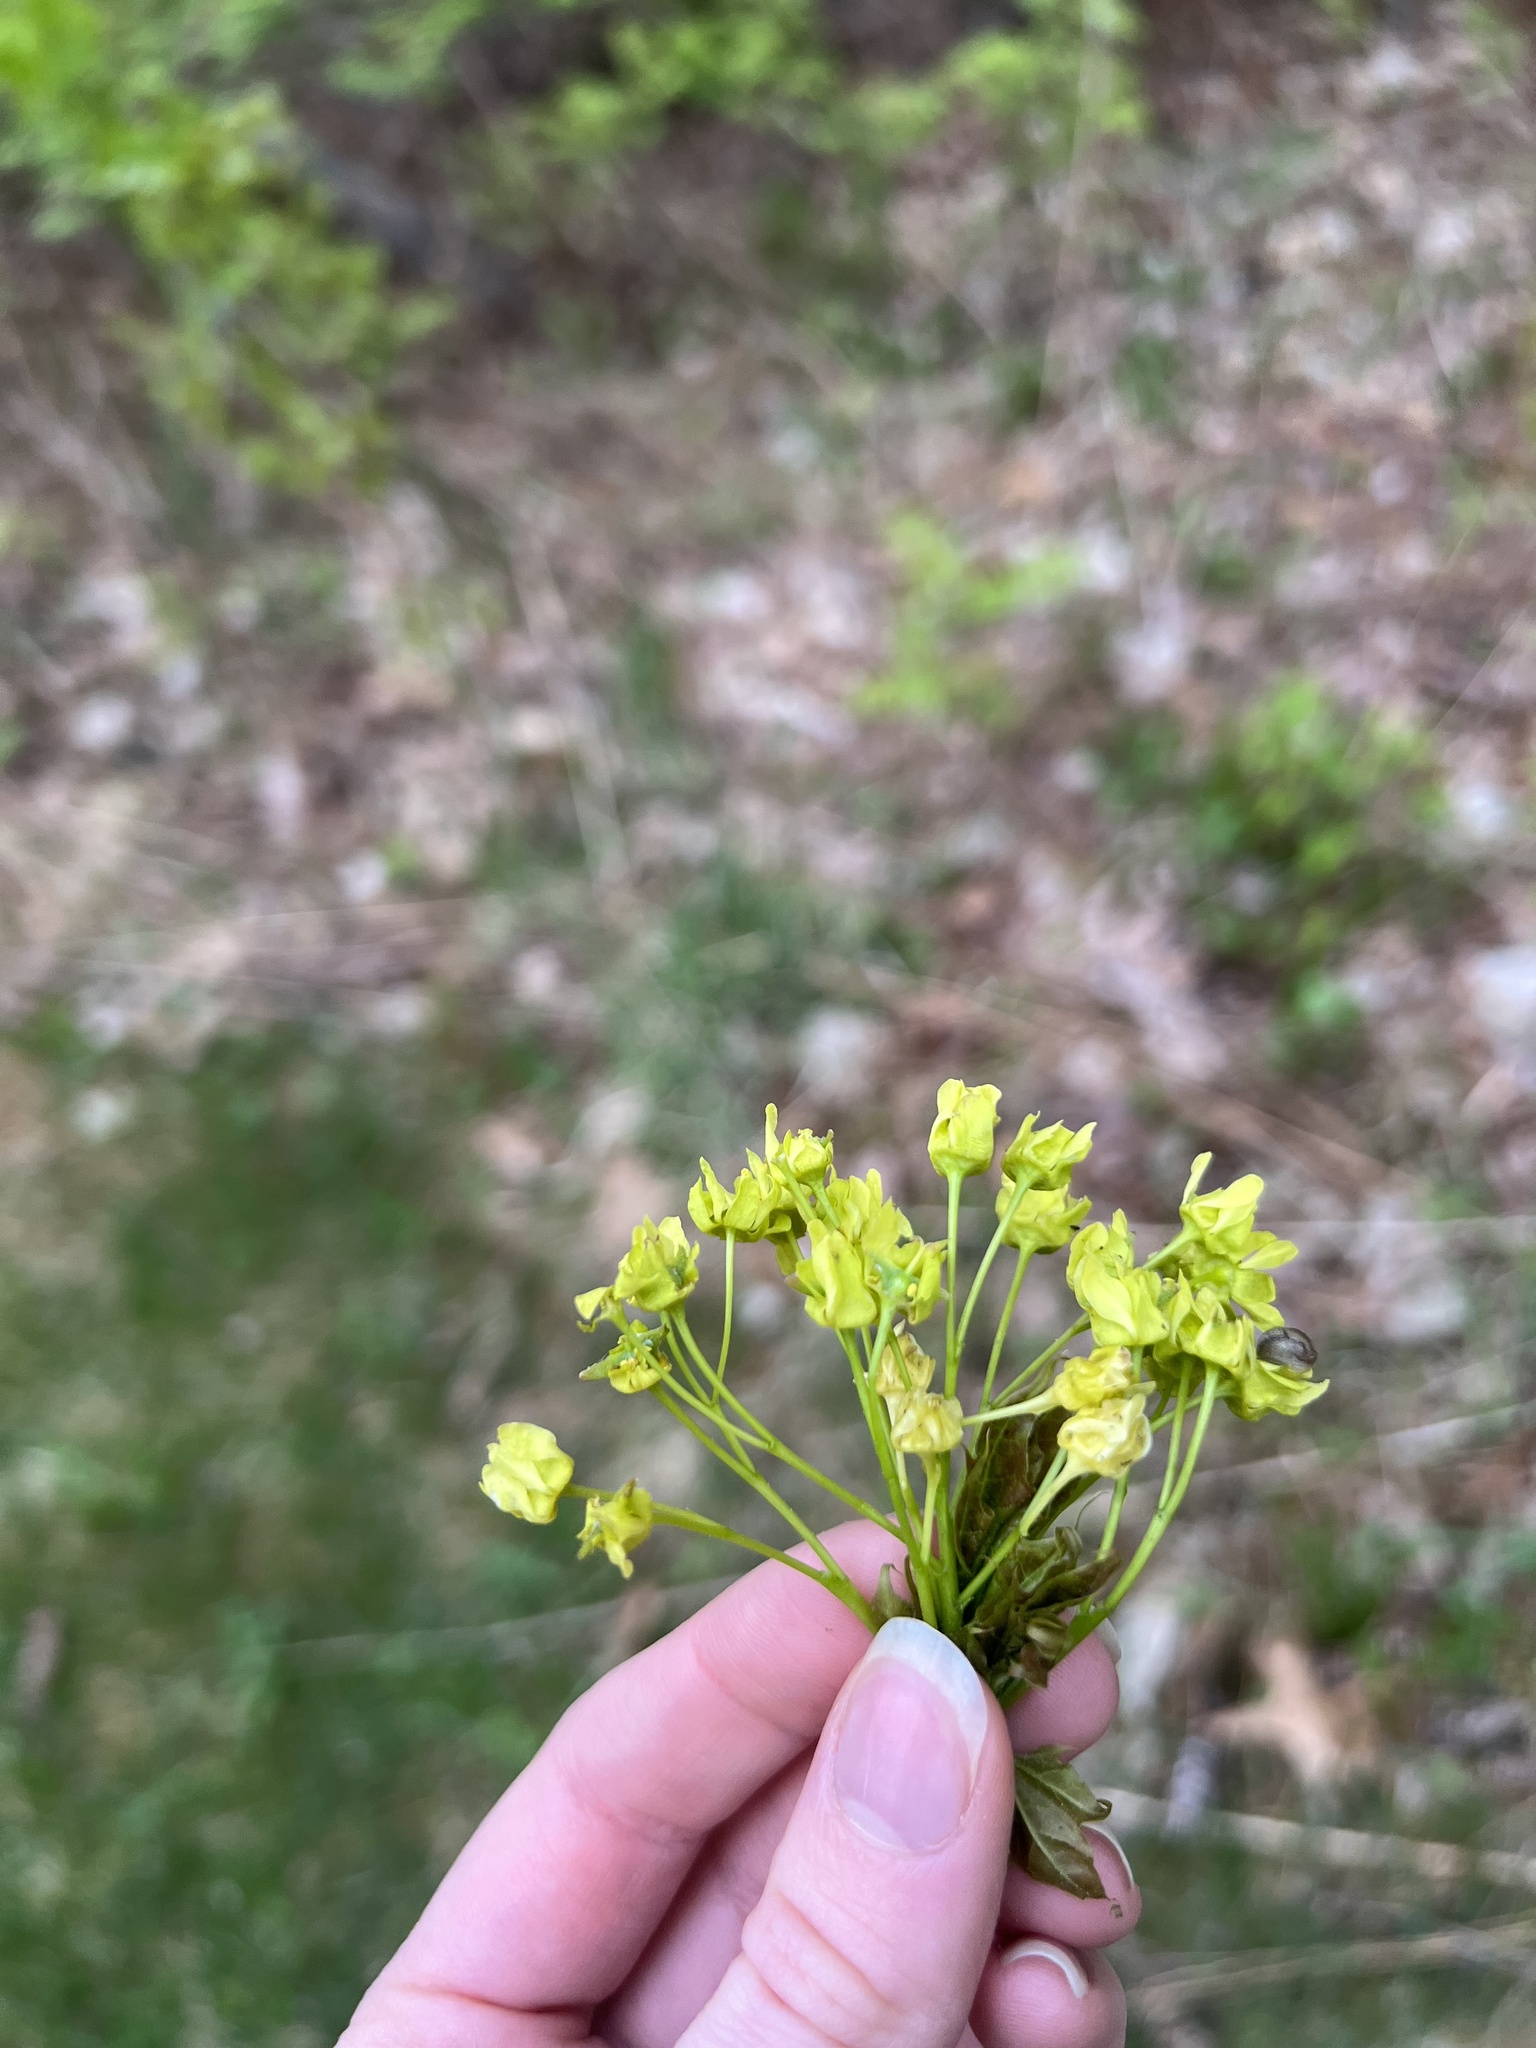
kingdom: Plantae
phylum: Tracheophyta
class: Magnoliopsida
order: Sapindales
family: Sapindaceae
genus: Acer
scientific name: Acer platanoides
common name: Norway maple
